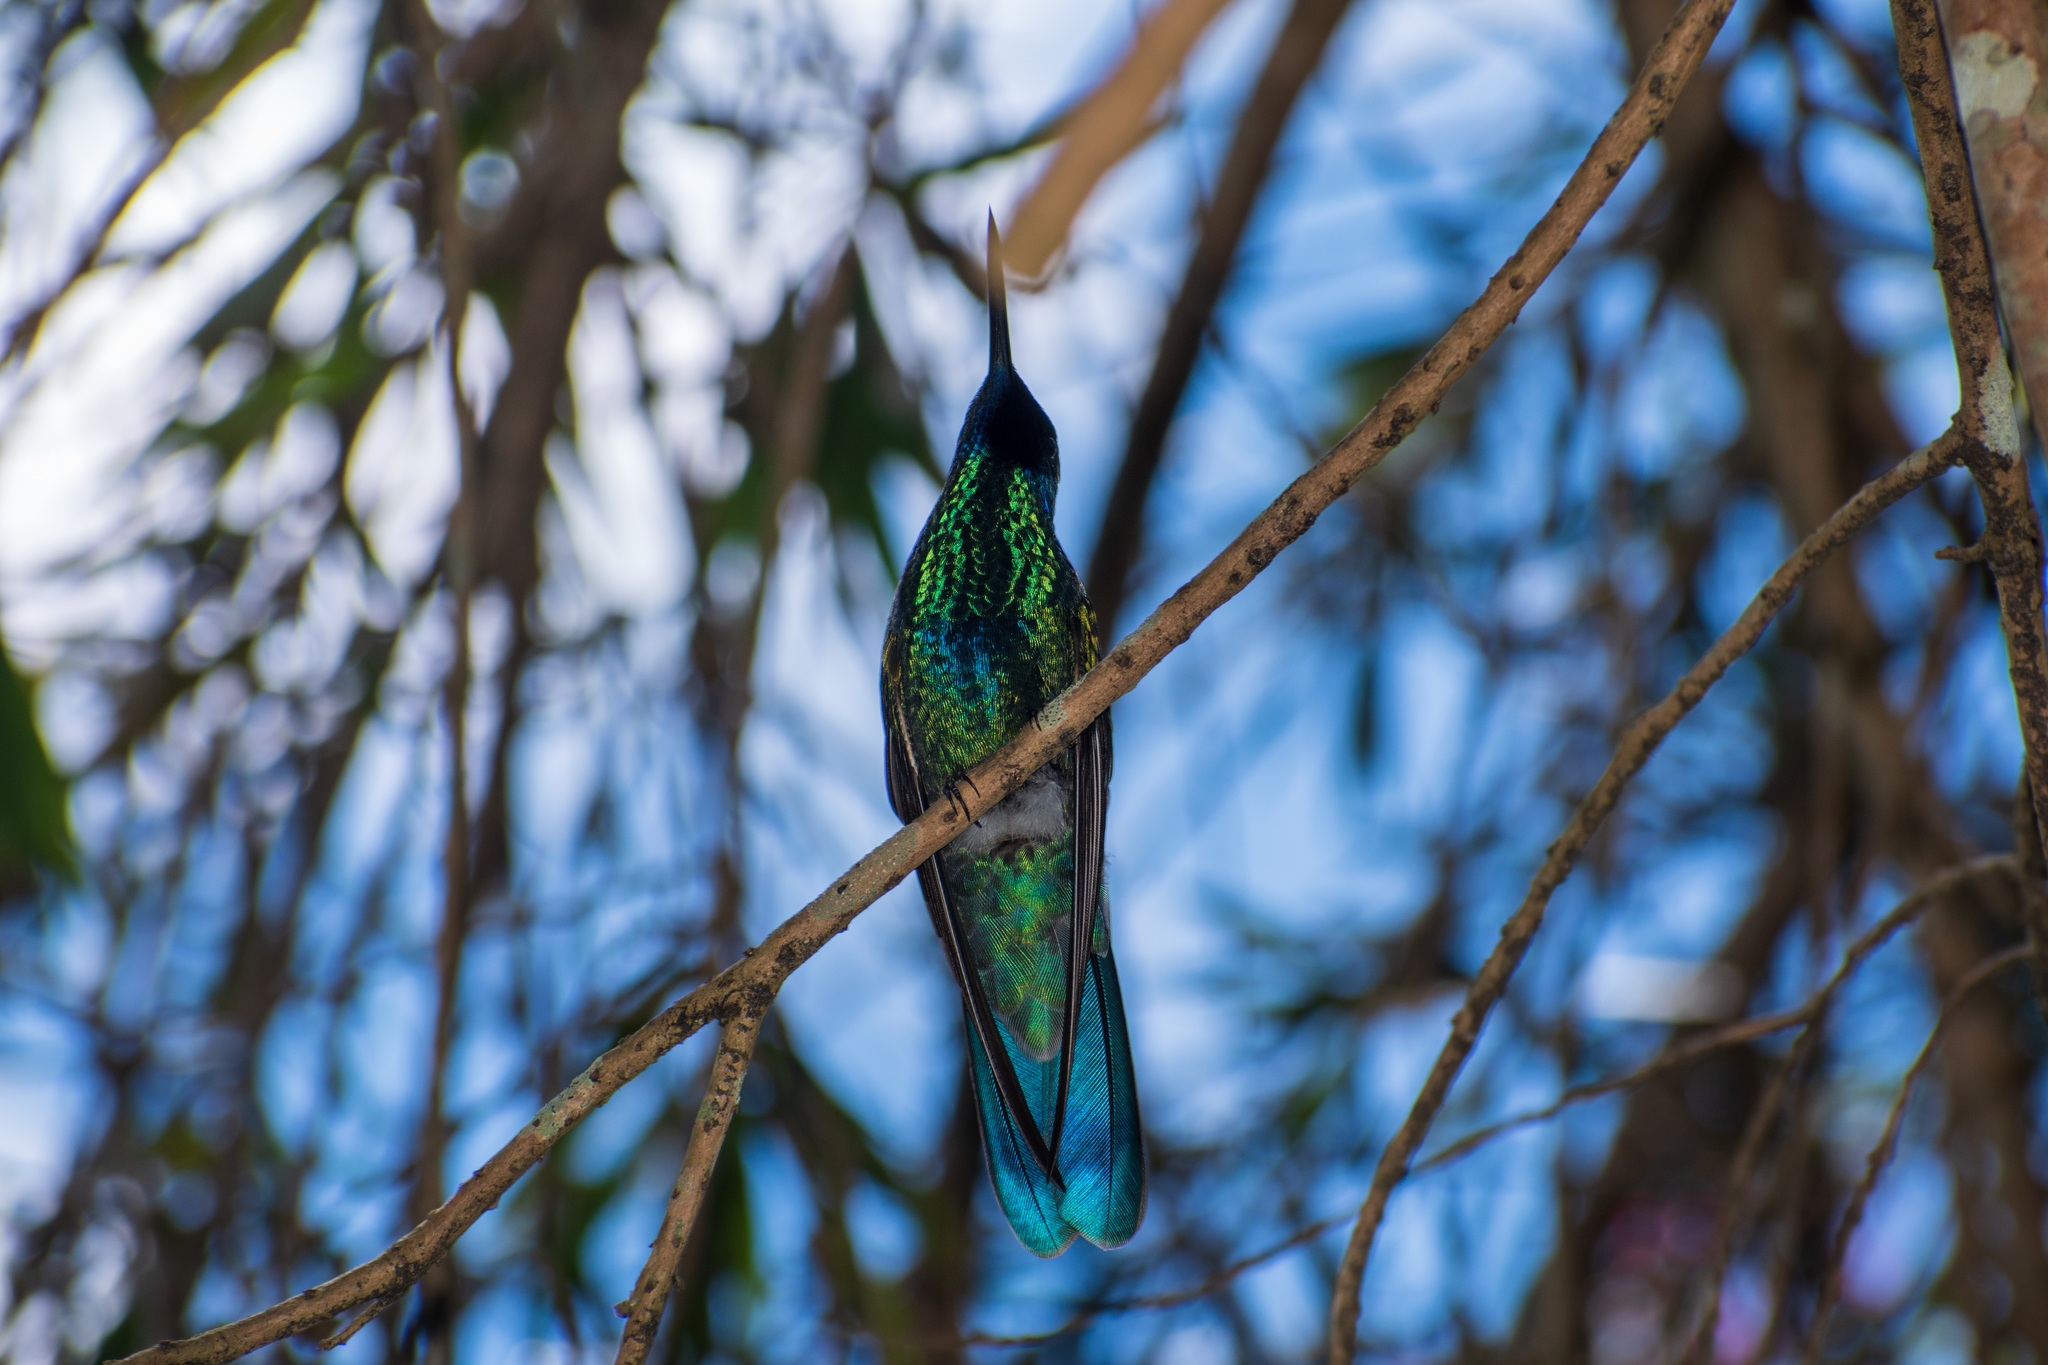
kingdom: Animalia
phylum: Chordata
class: Aves
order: Apodiformes
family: Trochilidae
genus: Colibri
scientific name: Colibri coruscans
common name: Sparkling violetear
